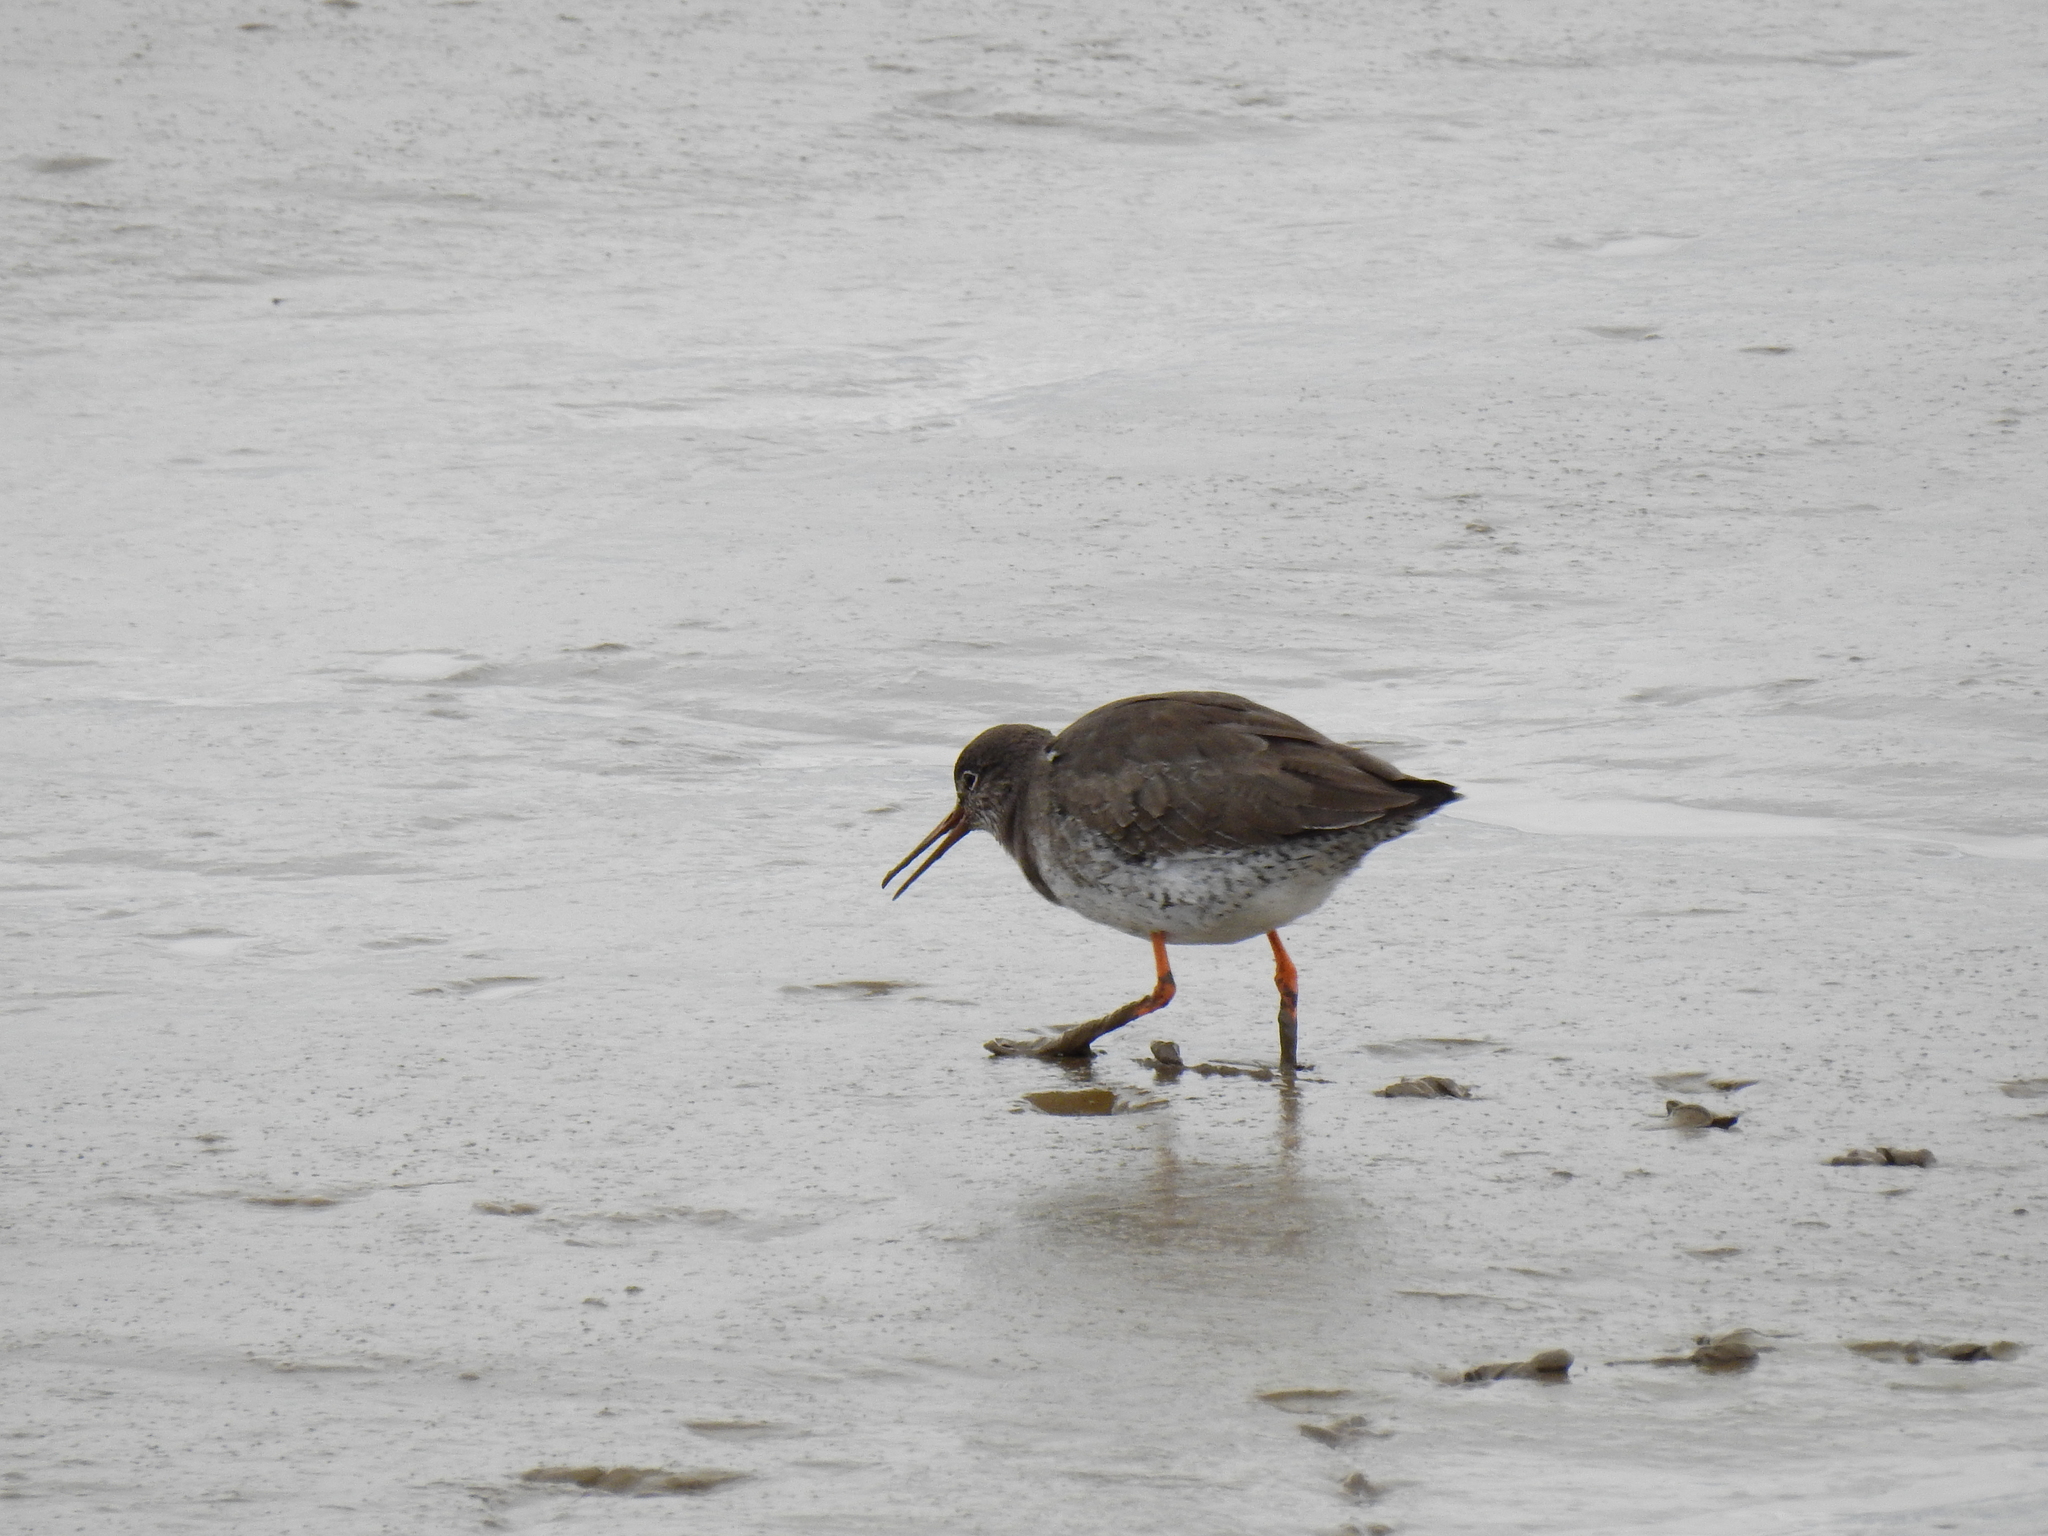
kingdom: Animalia
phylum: Chordata
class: Aves
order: Charadriiformes
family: Scolopacidae
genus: Tringa
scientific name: Tringa totanus
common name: Common redshank
